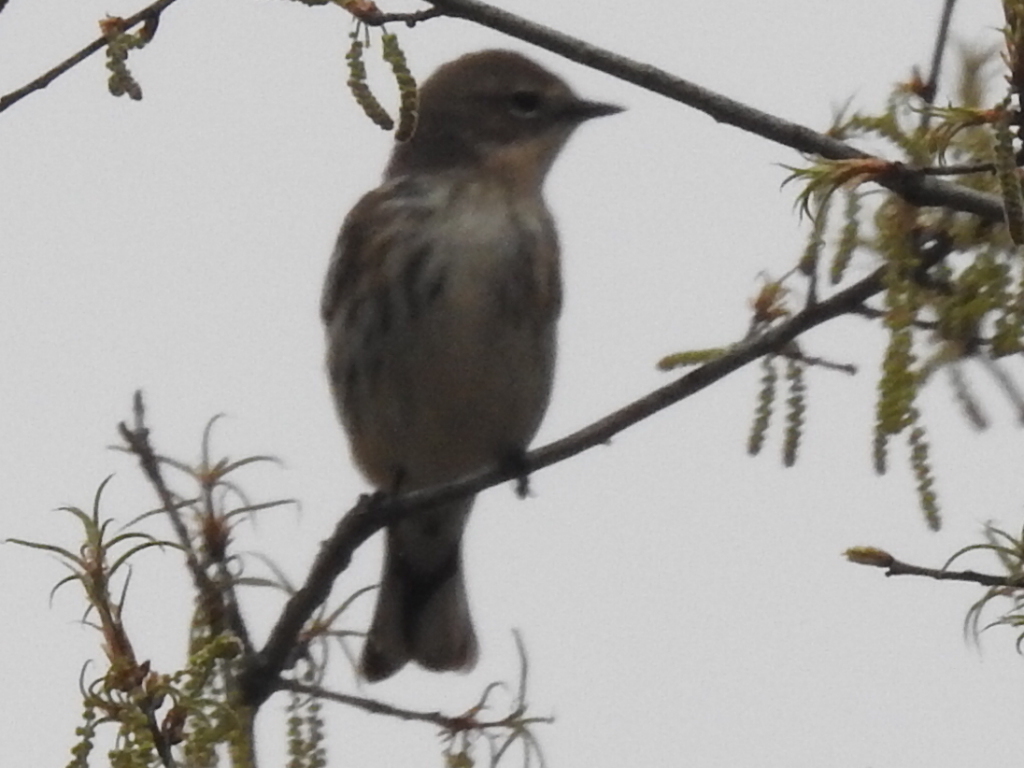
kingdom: Animalia
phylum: Chordata
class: Aves
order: Passeriformes
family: Parulidae
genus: Setophaga
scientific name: Setophaga coronata
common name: Myrtle warbler
